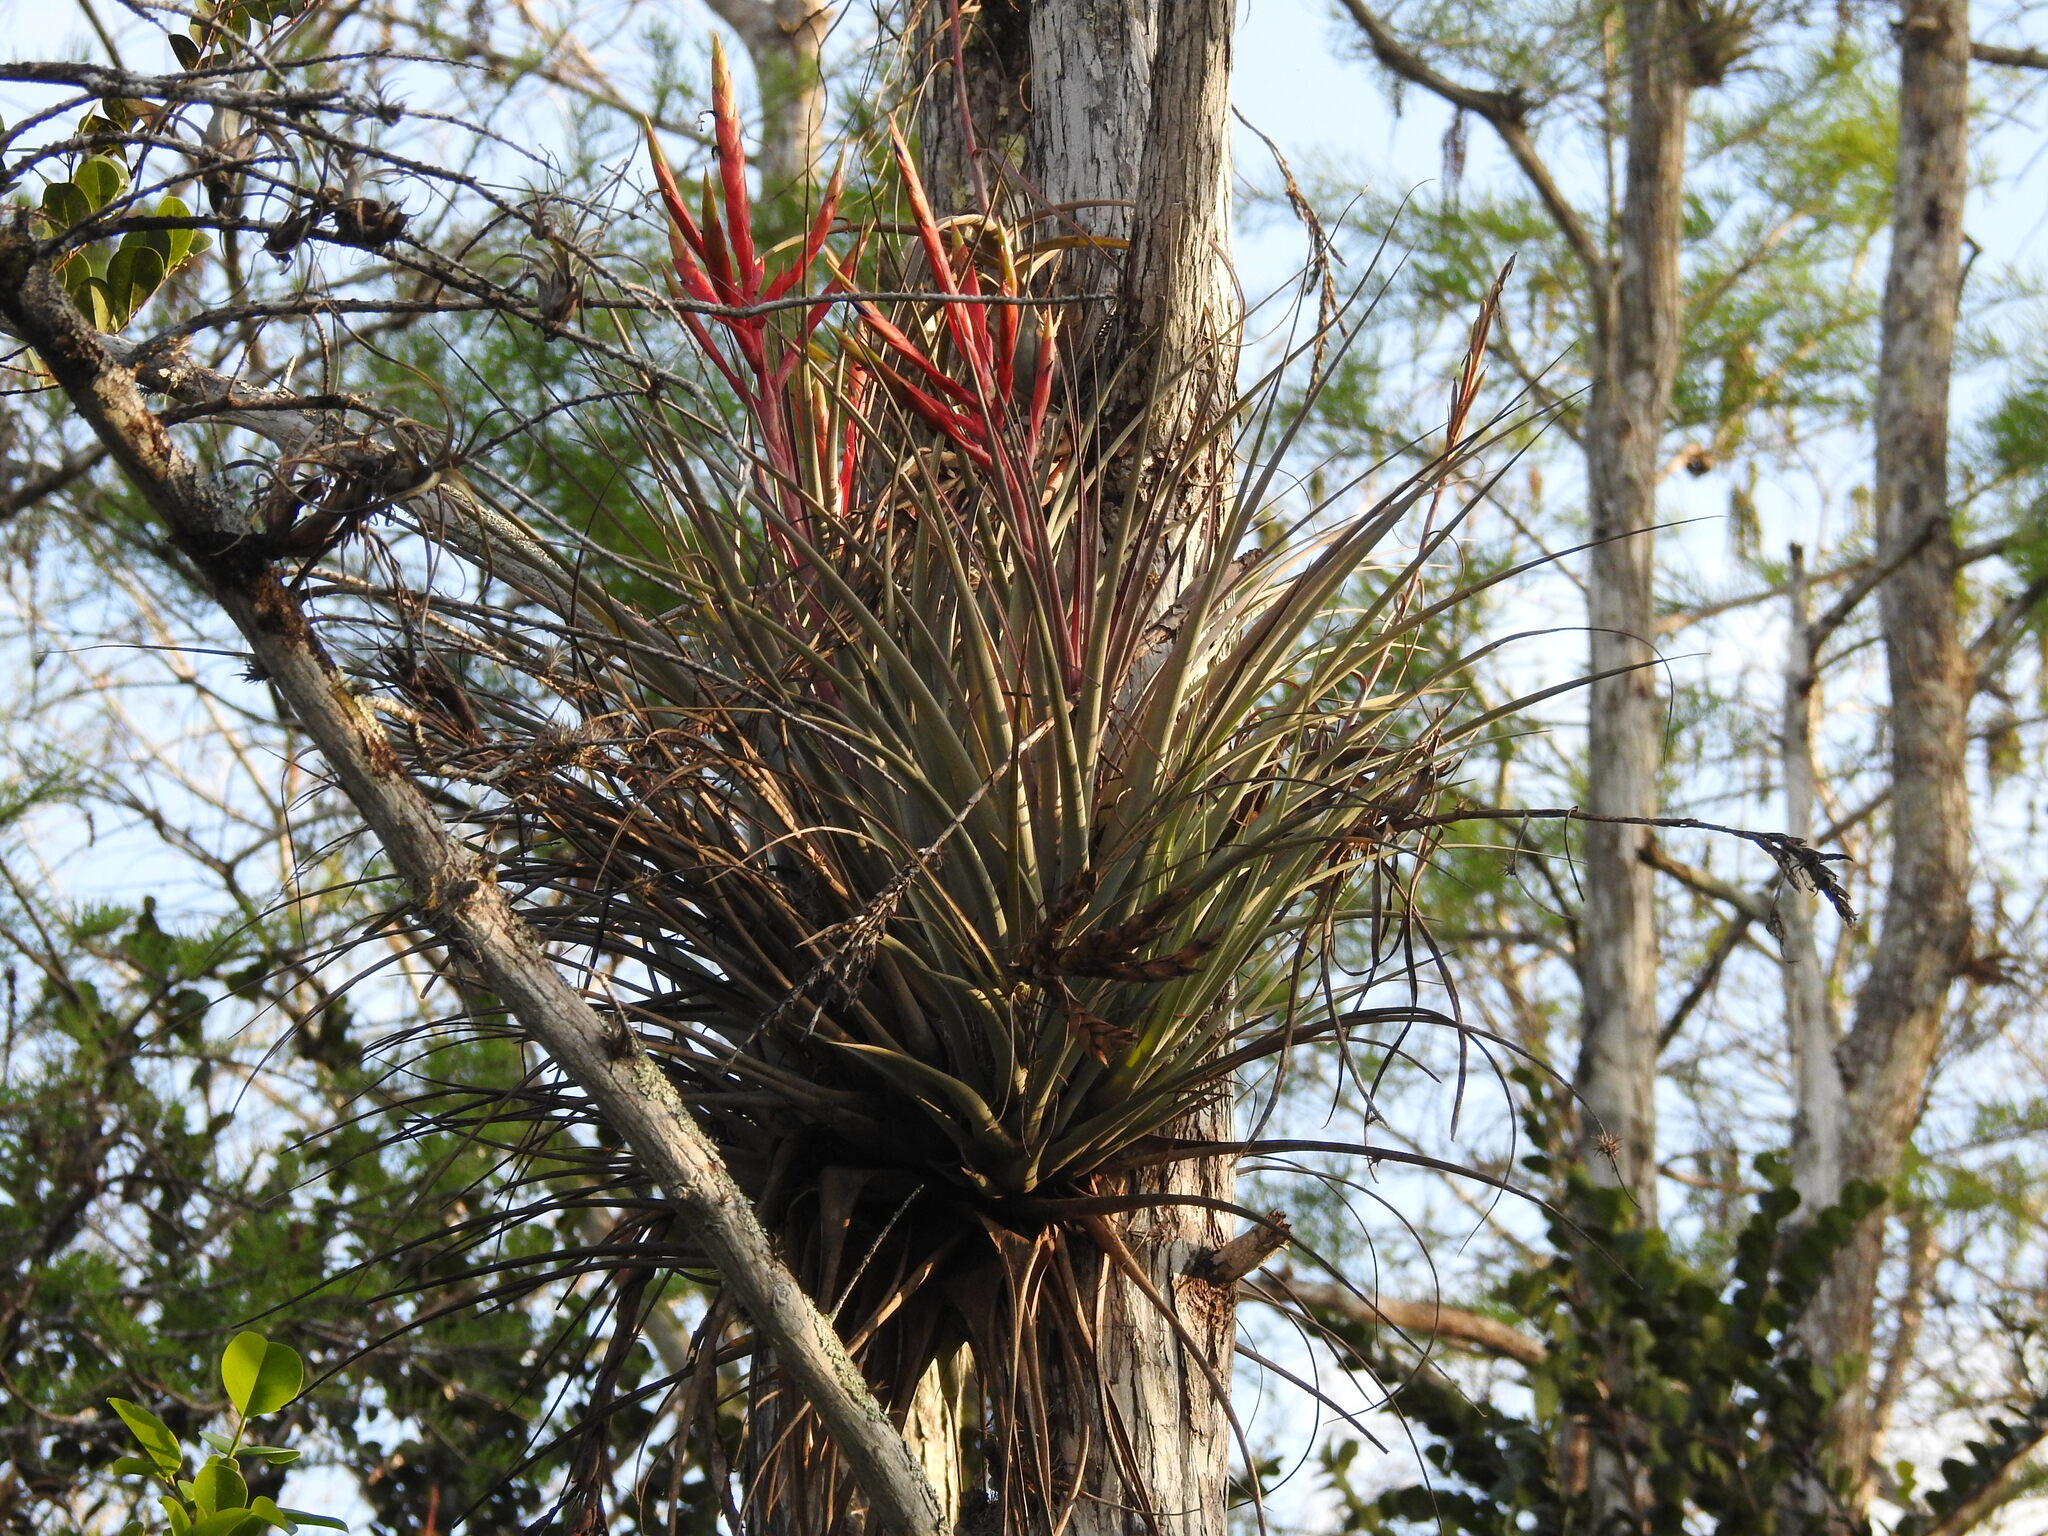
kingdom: Plantae
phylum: Tracheophyta
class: Liliopsida
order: Poales
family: Bromeliaceae
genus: Tillandsia
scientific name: Tillandsia fasciculata
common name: Giant airplant
